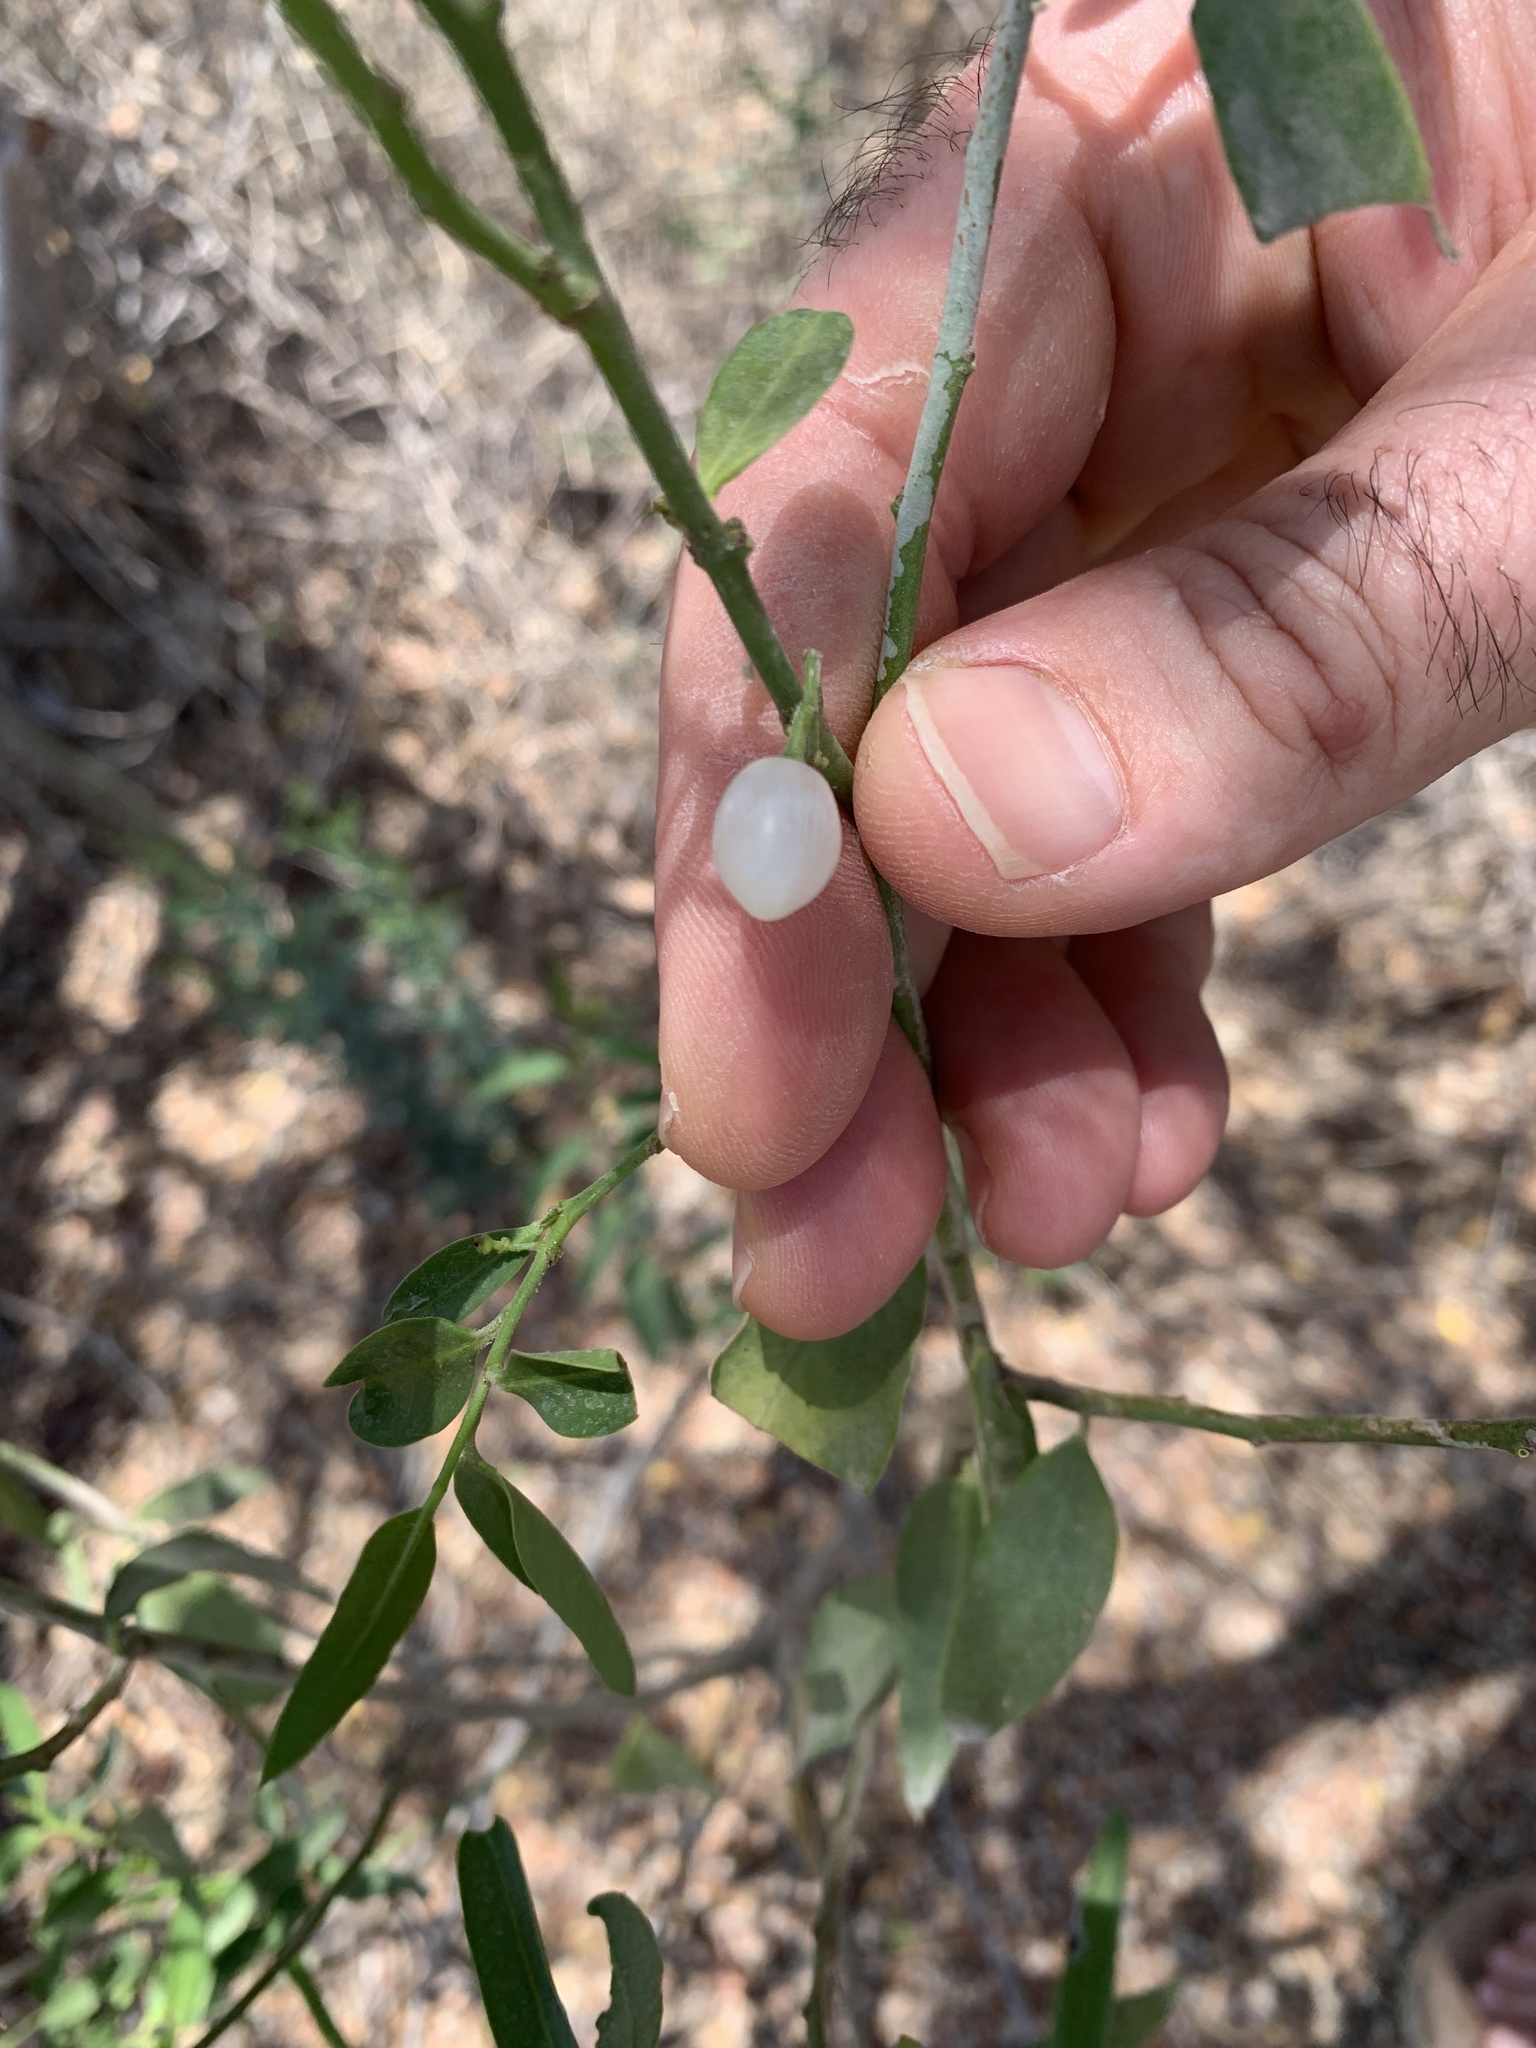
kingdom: Plantae
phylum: Tracheophyta
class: Magnoliopsida
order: Gentianales
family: Apocynaceae
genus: Vallesia
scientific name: Vallesia glabra
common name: Pearlberry
